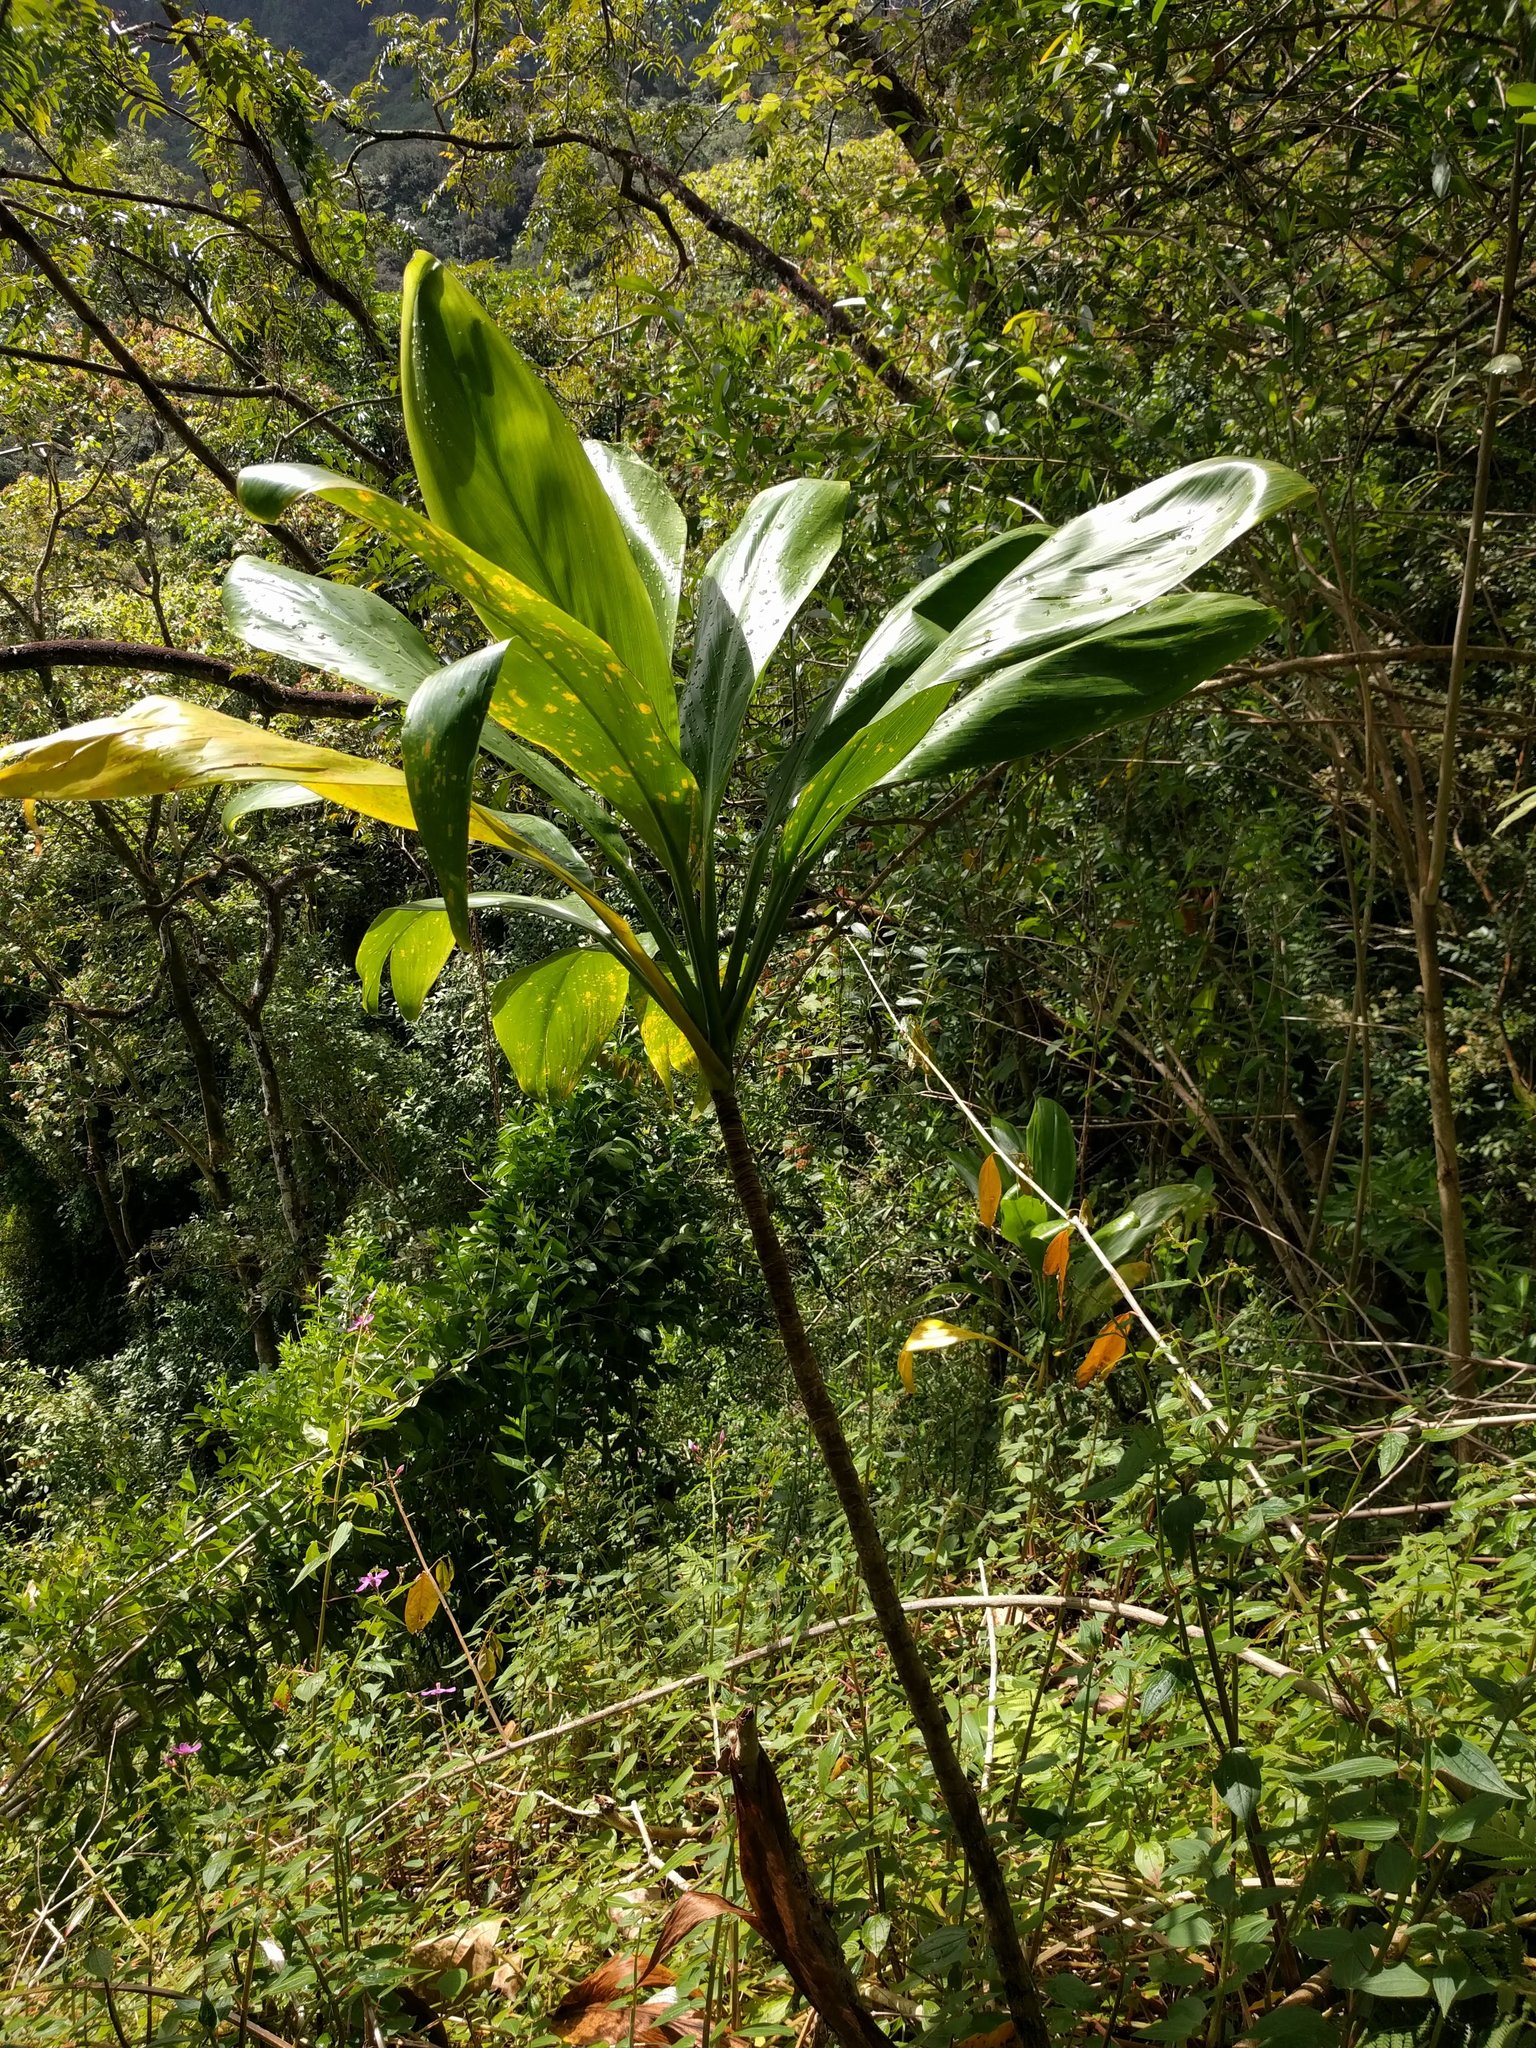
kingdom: Plantae
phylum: Tracheophyta
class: Liliopsida
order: Asparagales
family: Asparagaceae
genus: Cordyline
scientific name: Cordyline fruticosa
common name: Good-luck-plant
